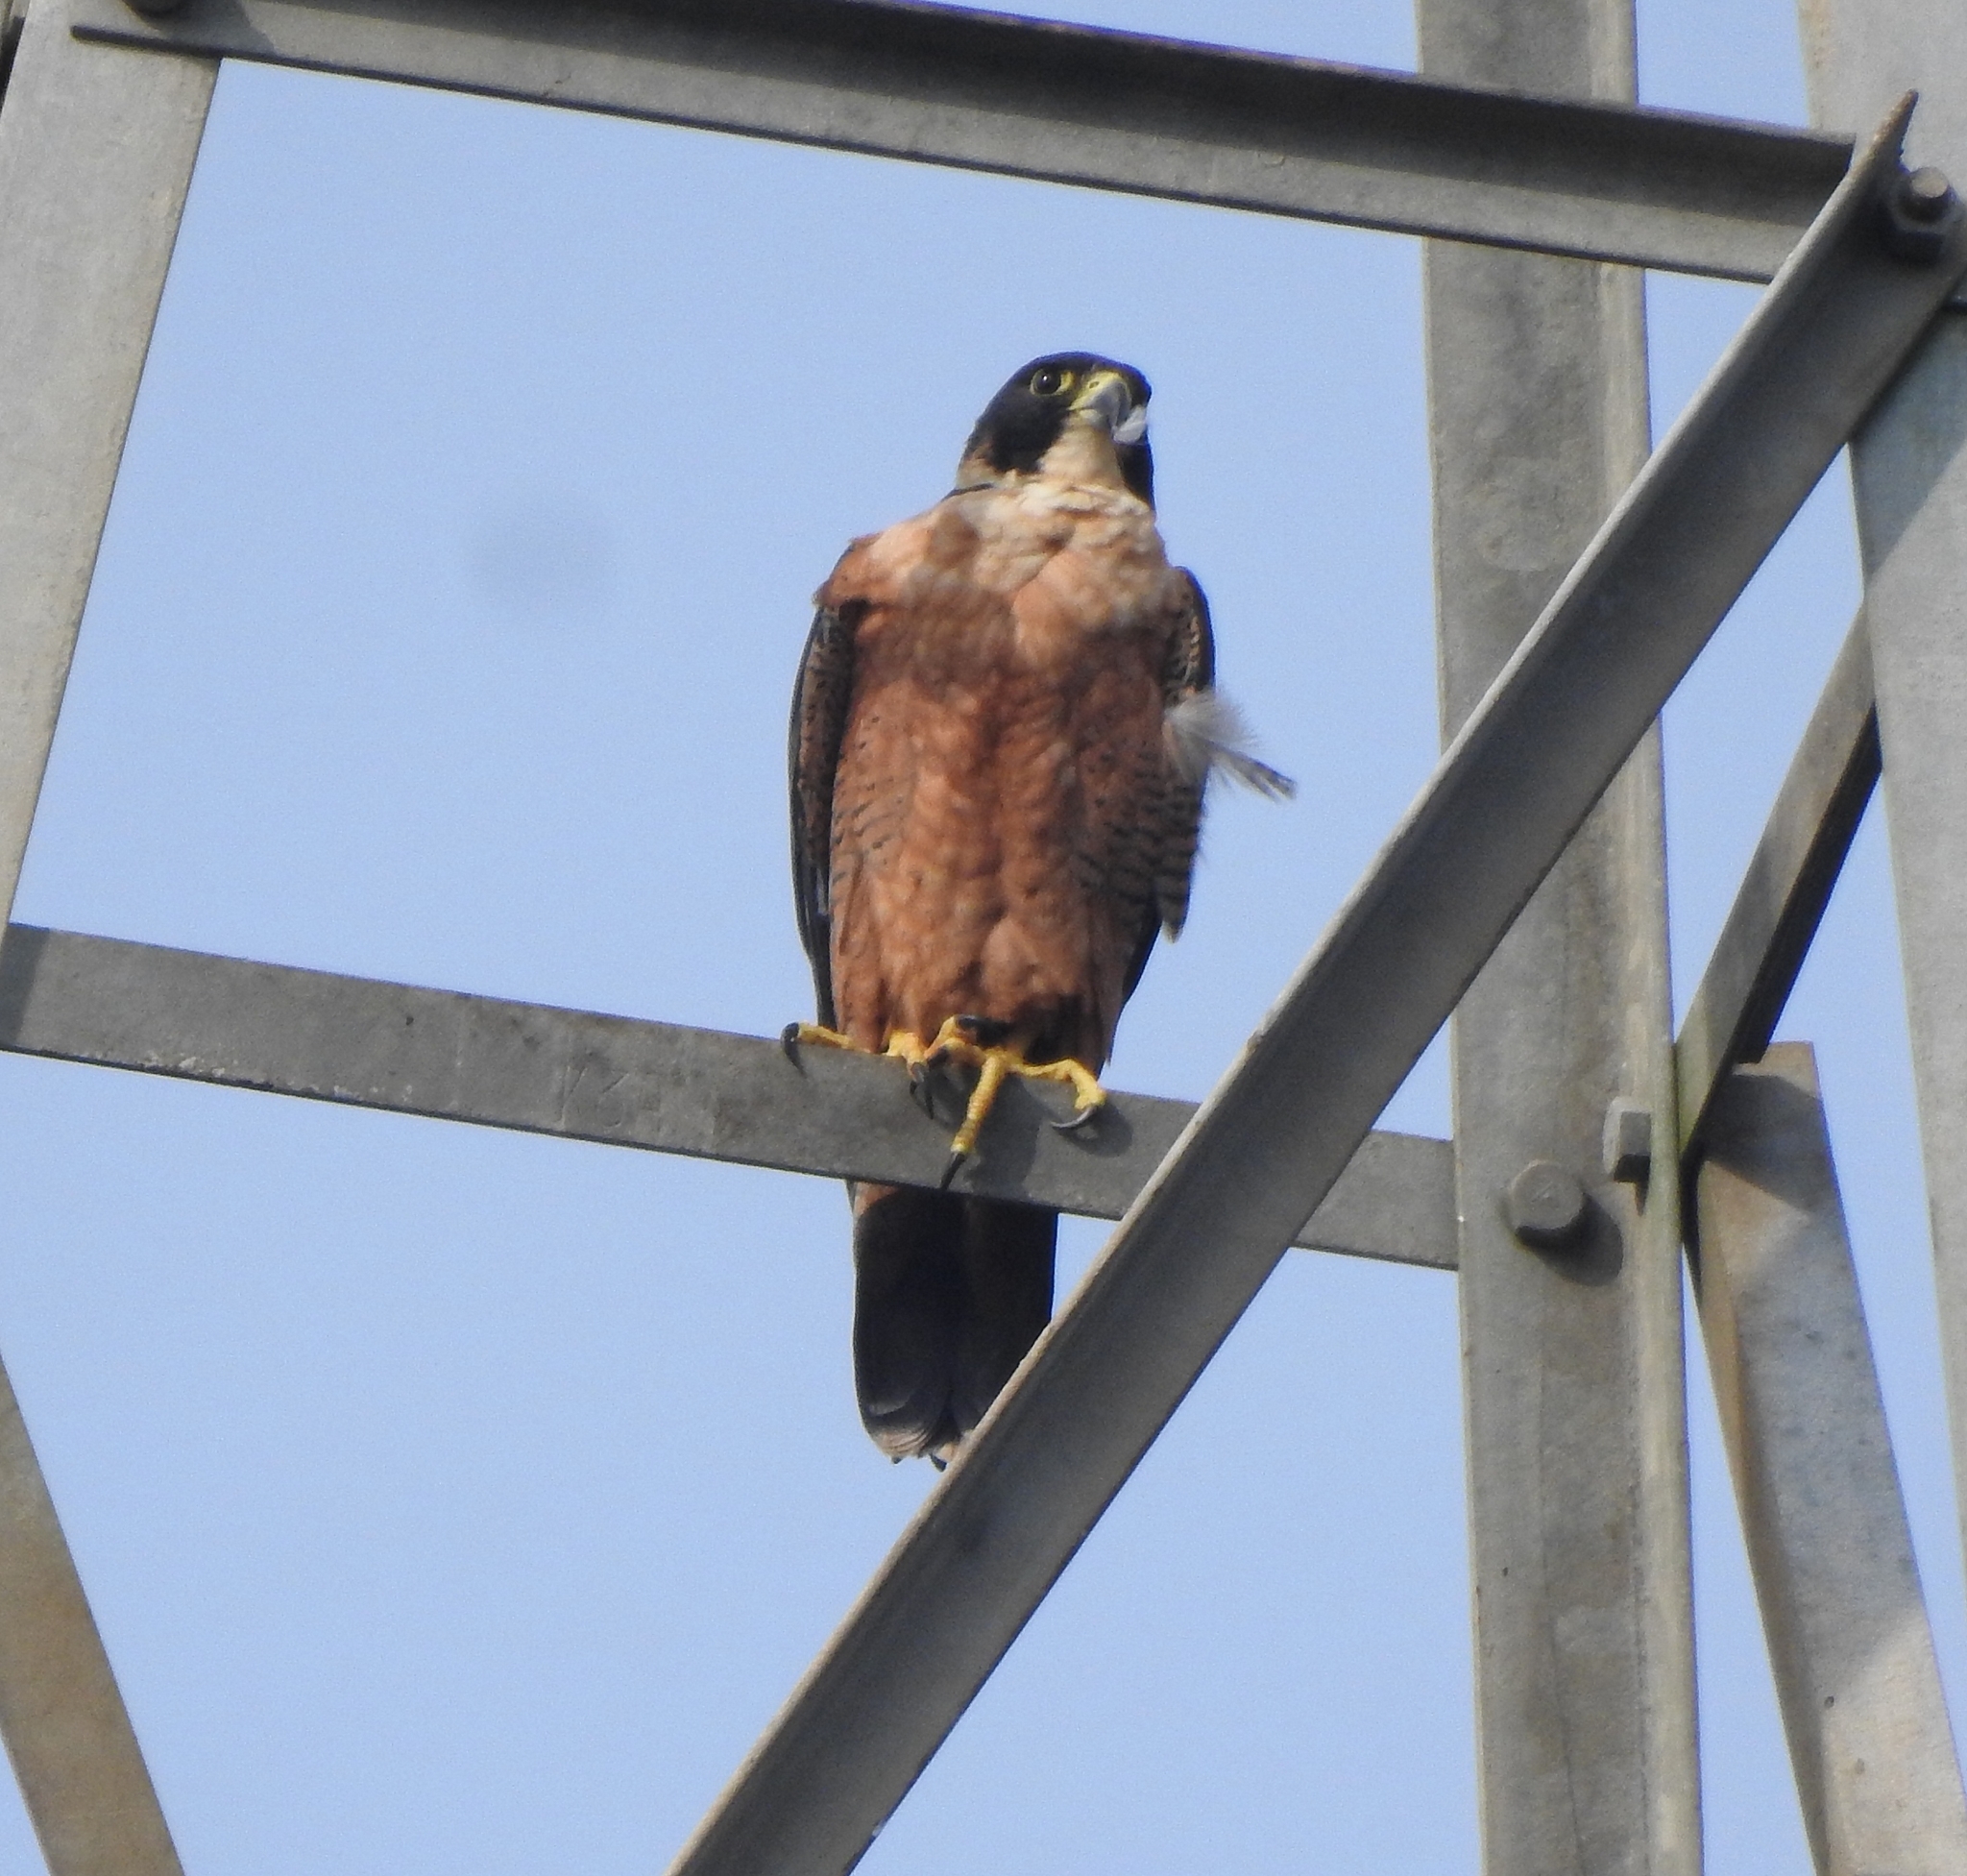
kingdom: Animalia
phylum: Chordata
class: Aves
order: Falconiformes
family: Falconidae
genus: Falco
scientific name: Falco peregrinus
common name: Peregrine falcon
